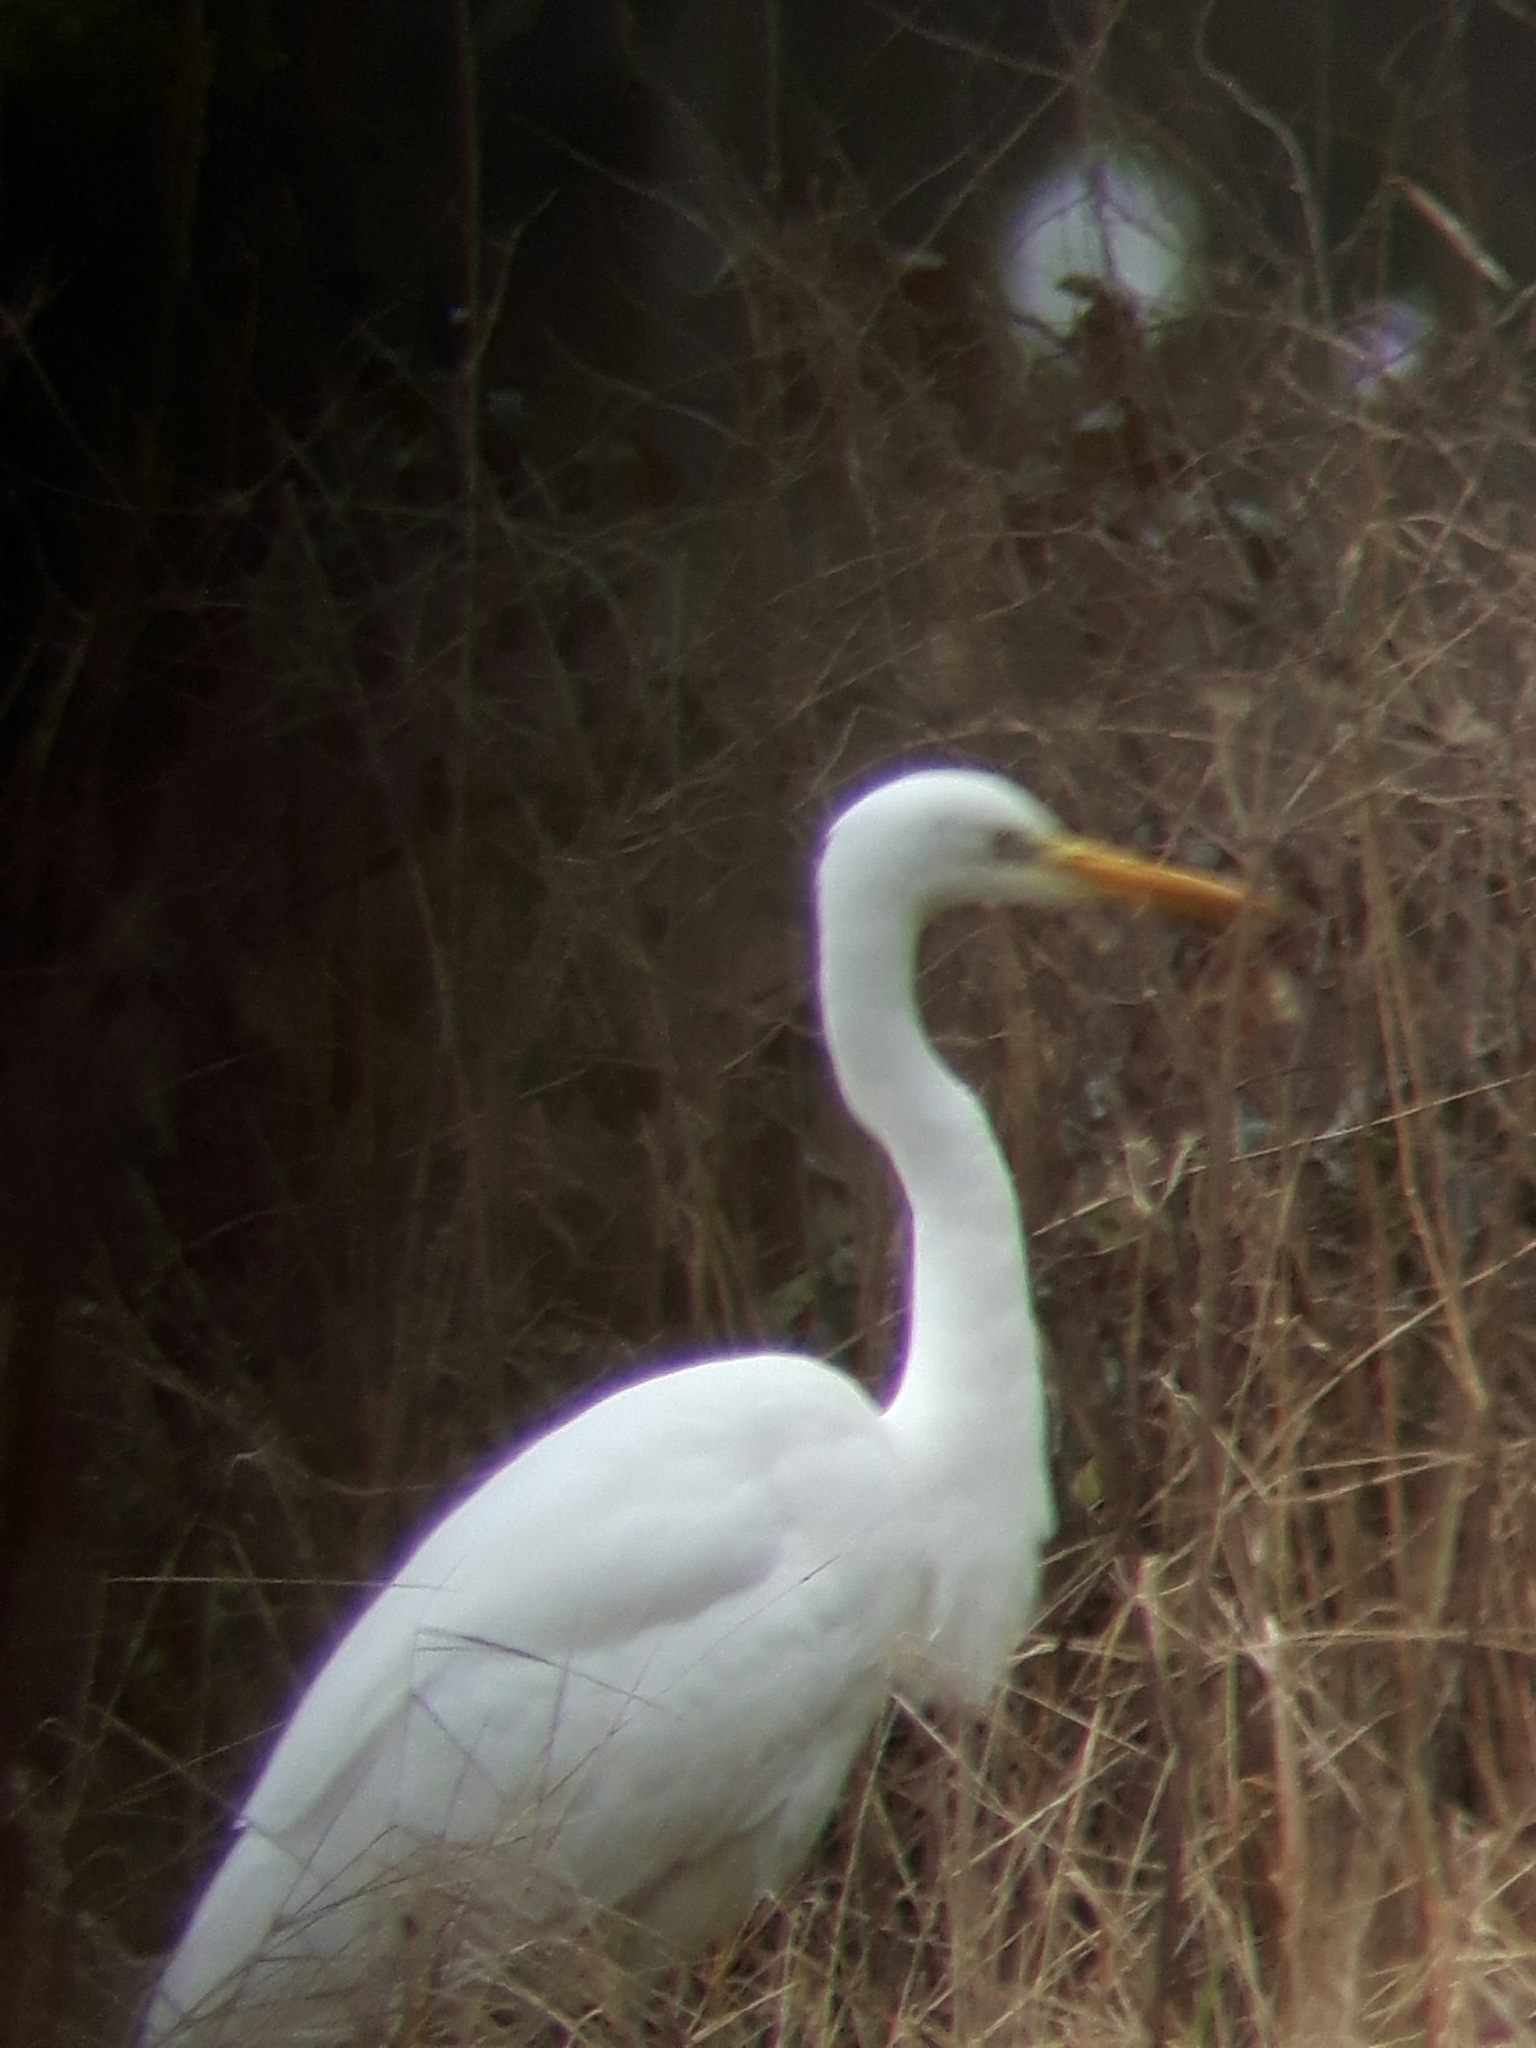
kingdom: Animalia
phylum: Chordata
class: Aves
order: Pelecaniformes
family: Ardeidae
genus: Ardea
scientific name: Ardea alba
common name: Great egret
